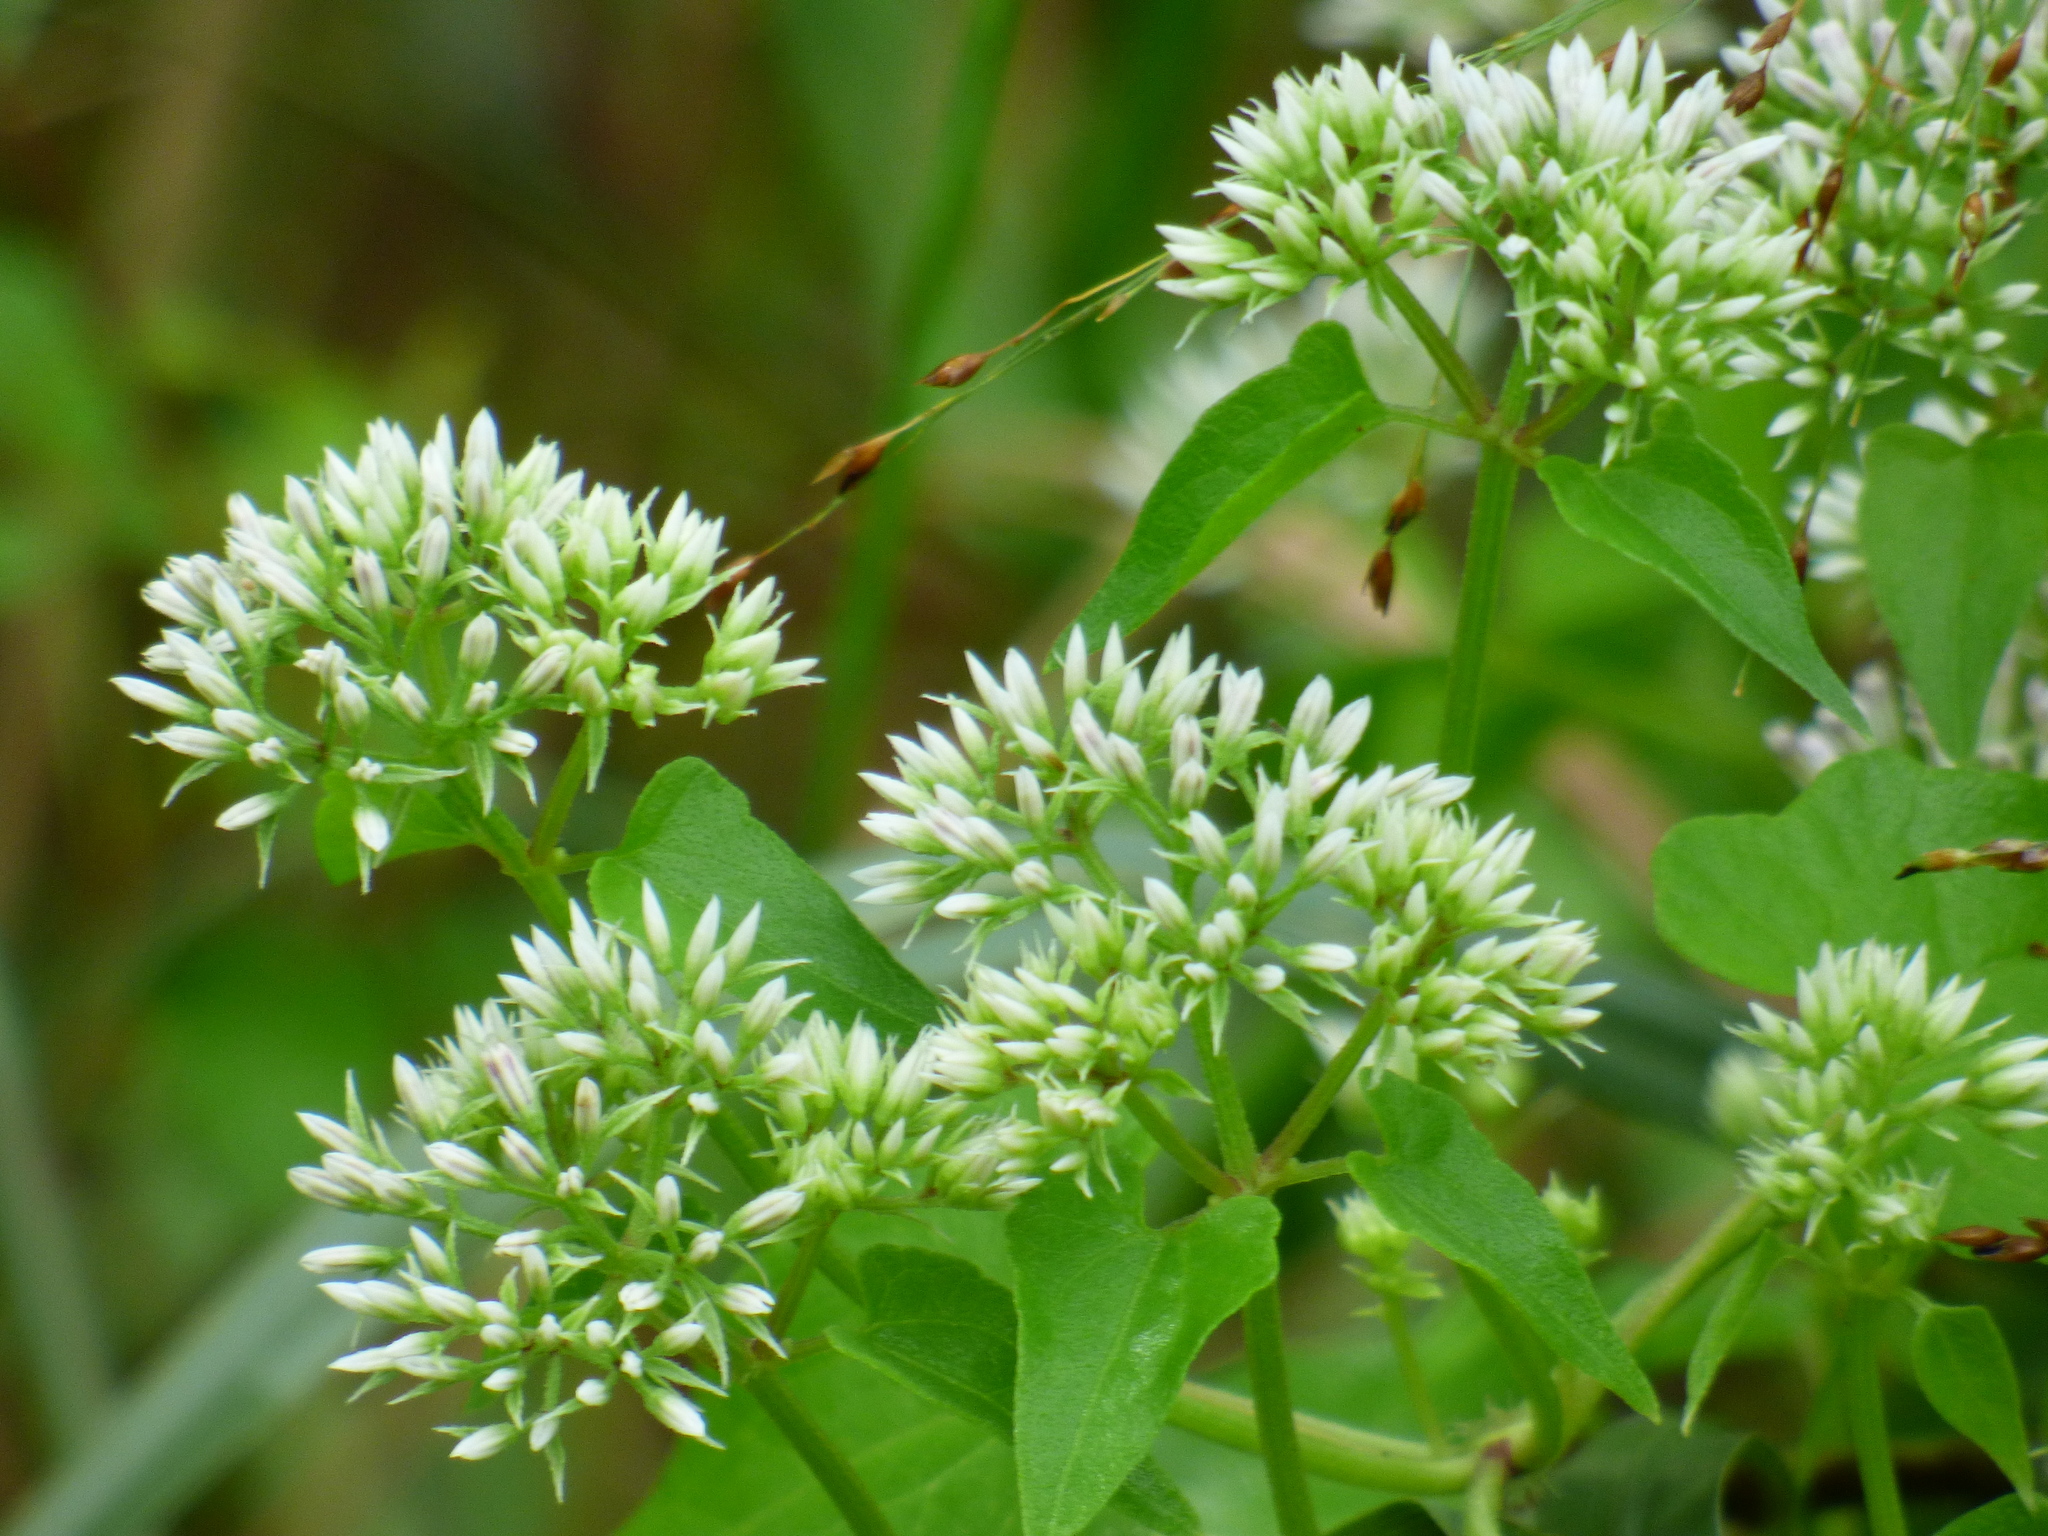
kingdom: Plantae
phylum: Tracheophyta
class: Magnoliopsida
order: Asterales
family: Asteraceae
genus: Mikania
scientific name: Mikania scandens
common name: Climbing hempvine
